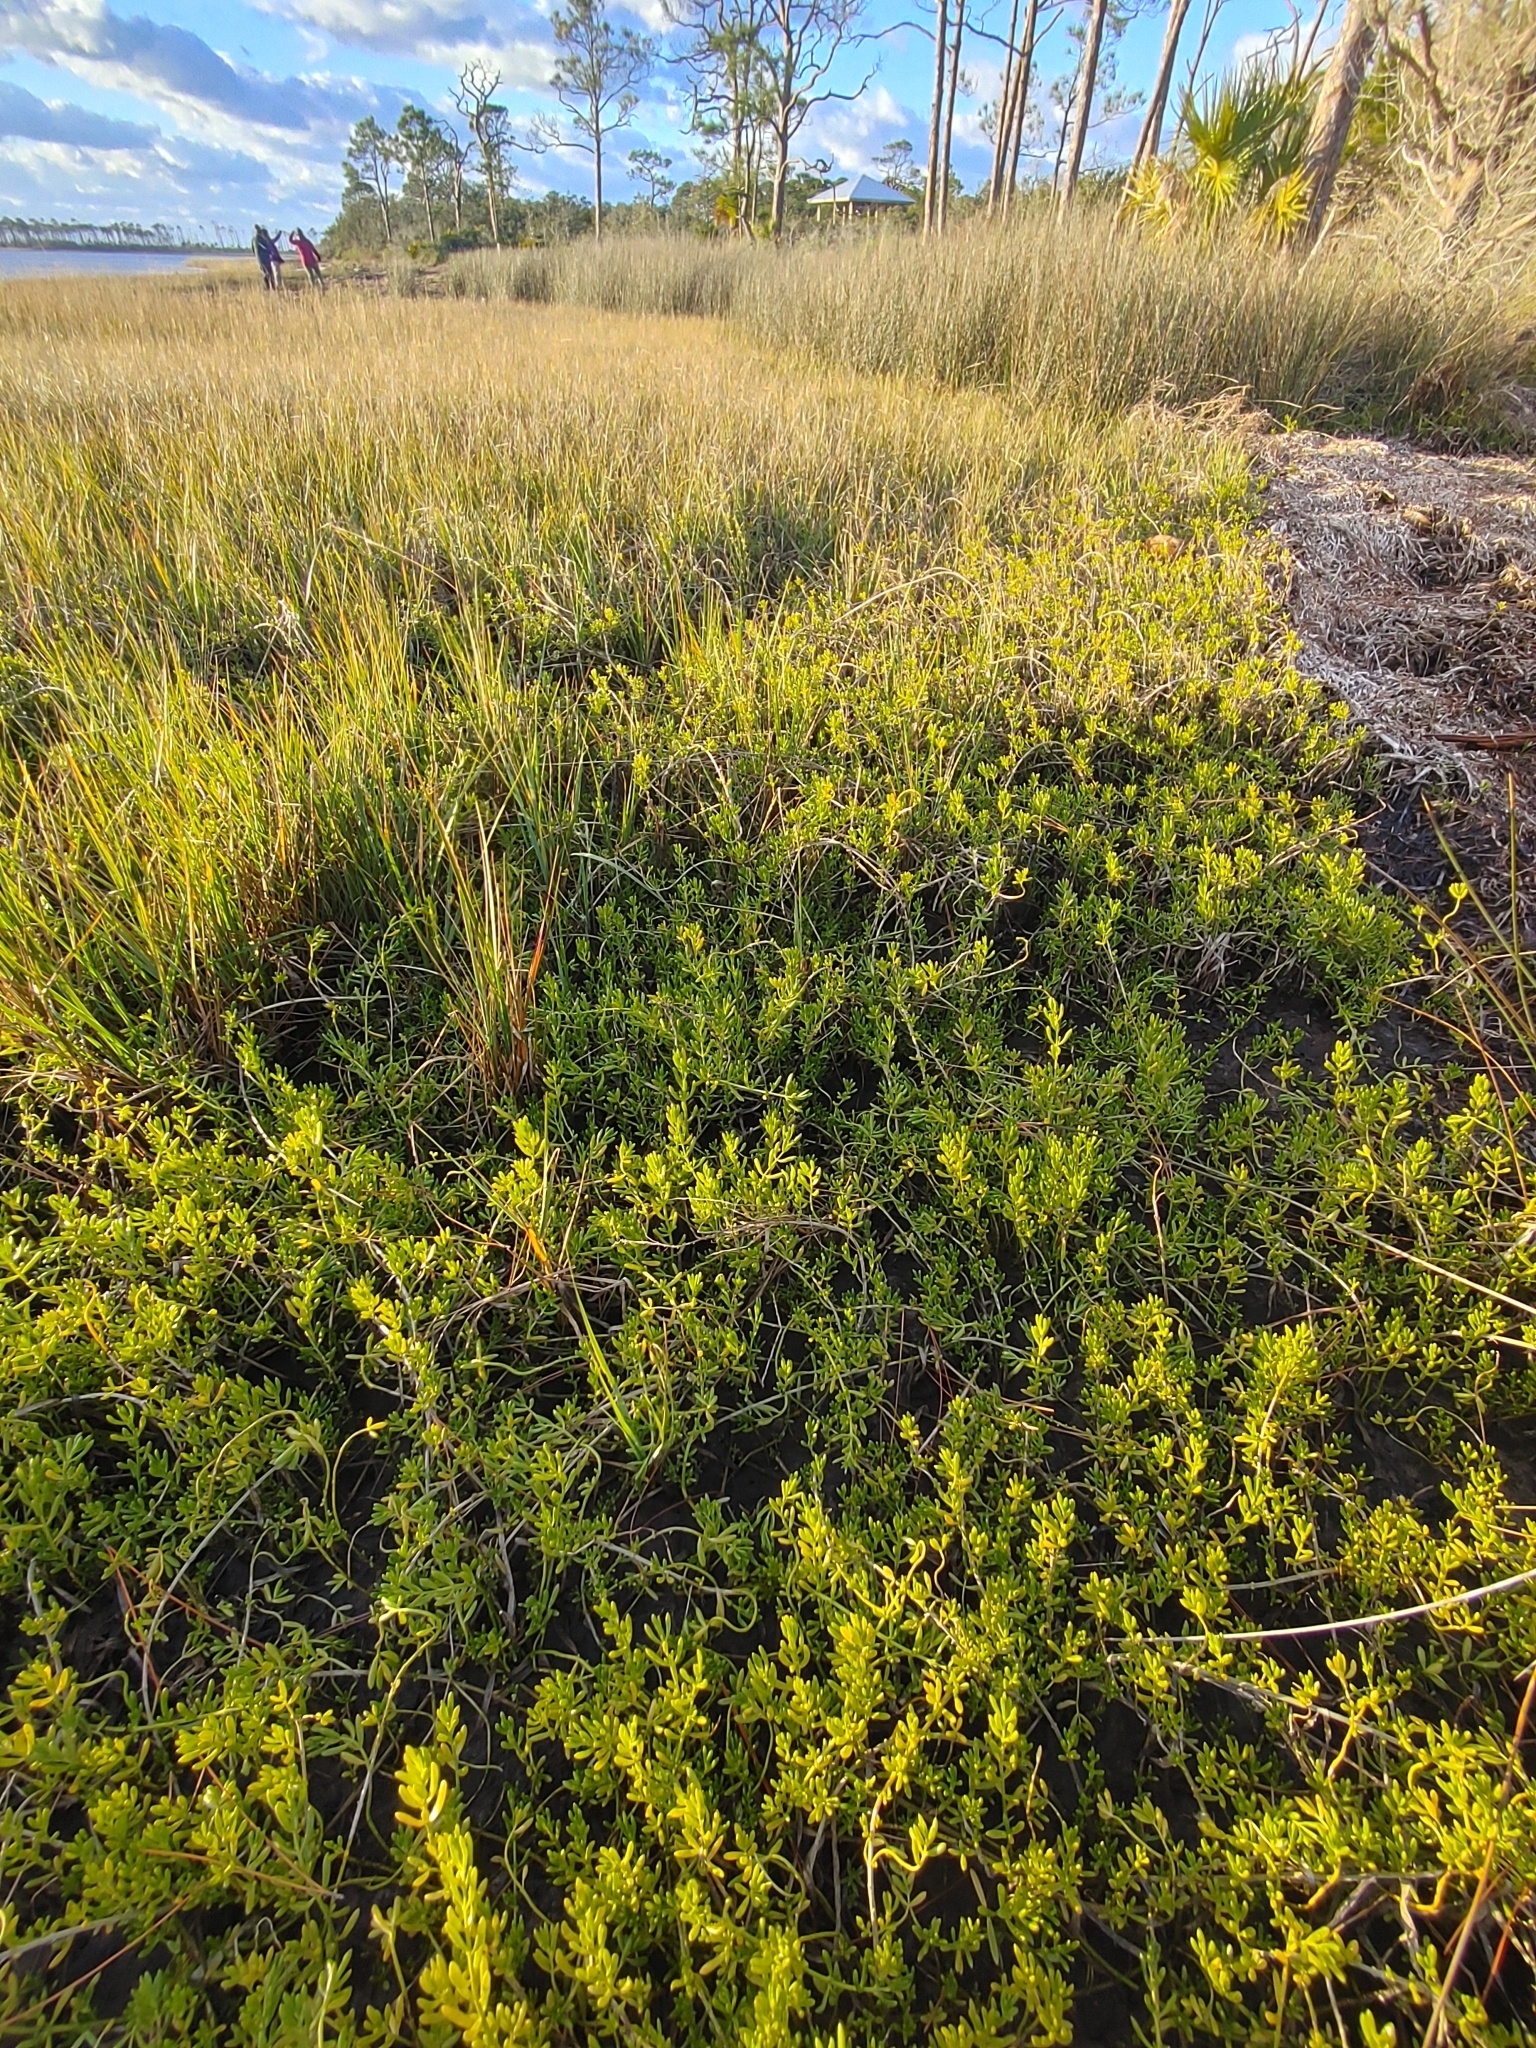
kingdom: Plantae
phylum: Tracheophyta
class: Magnoliopsida
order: Brassicales
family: Bataceae
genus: Batis
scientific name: Batis maritima
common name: Turtleweed
